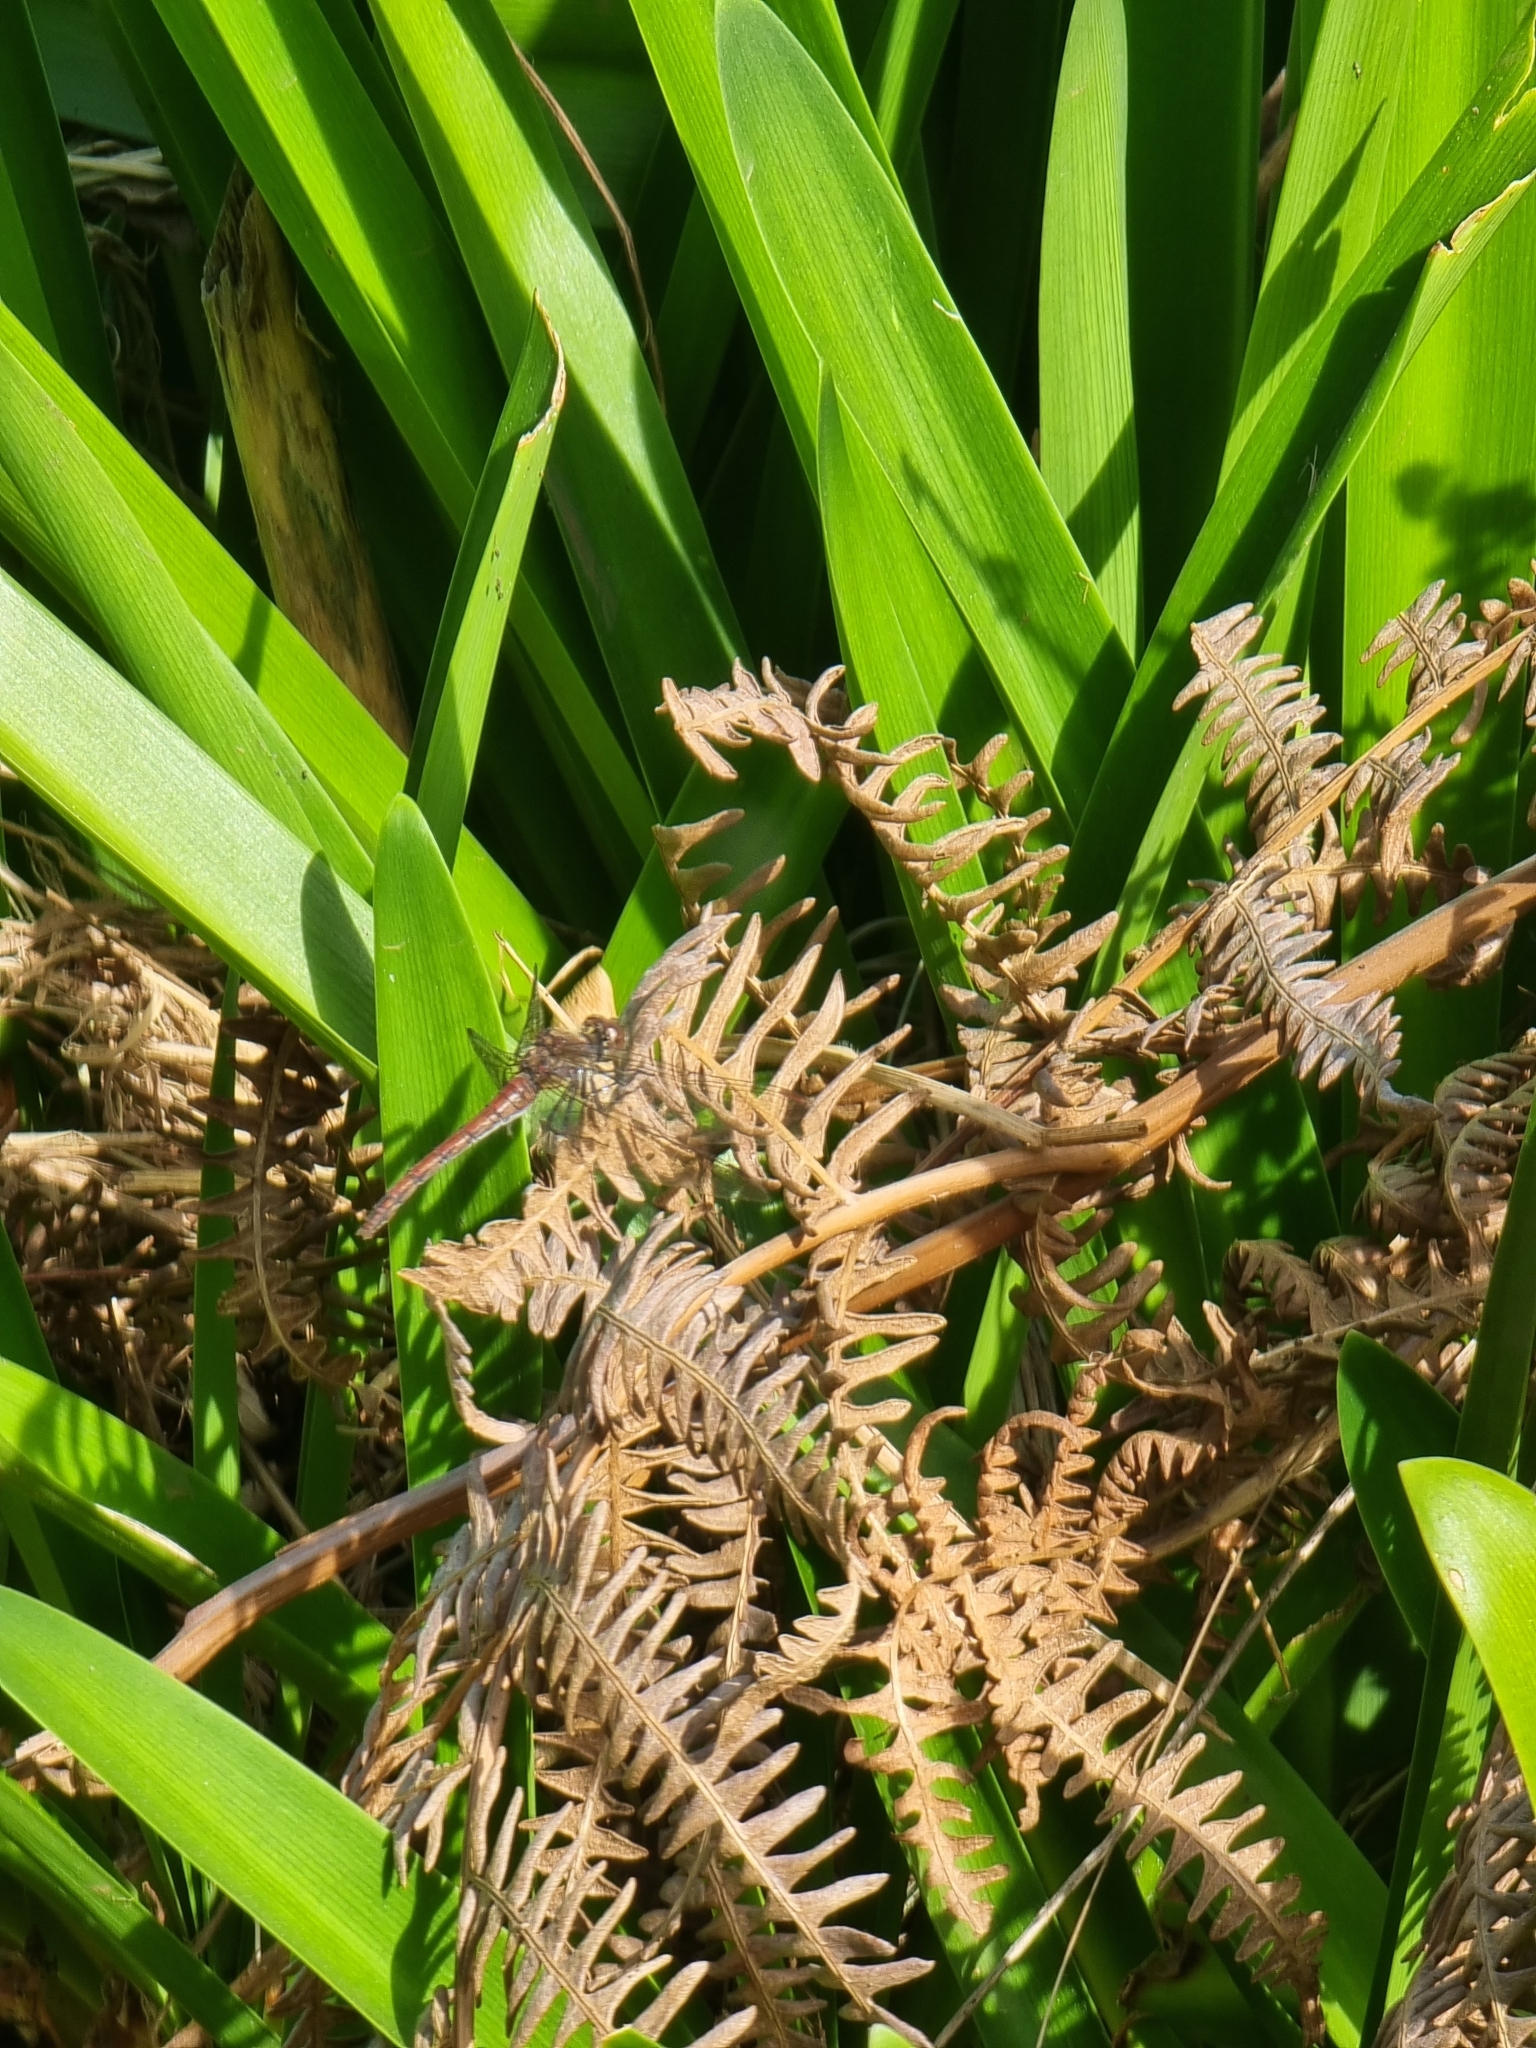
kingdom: Animalia
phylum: Arthropoda
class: Insecta
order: Odonata
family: Libellulidae
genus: Sympetrum
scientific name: Sympetrum nigrifemur
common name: Island darter
